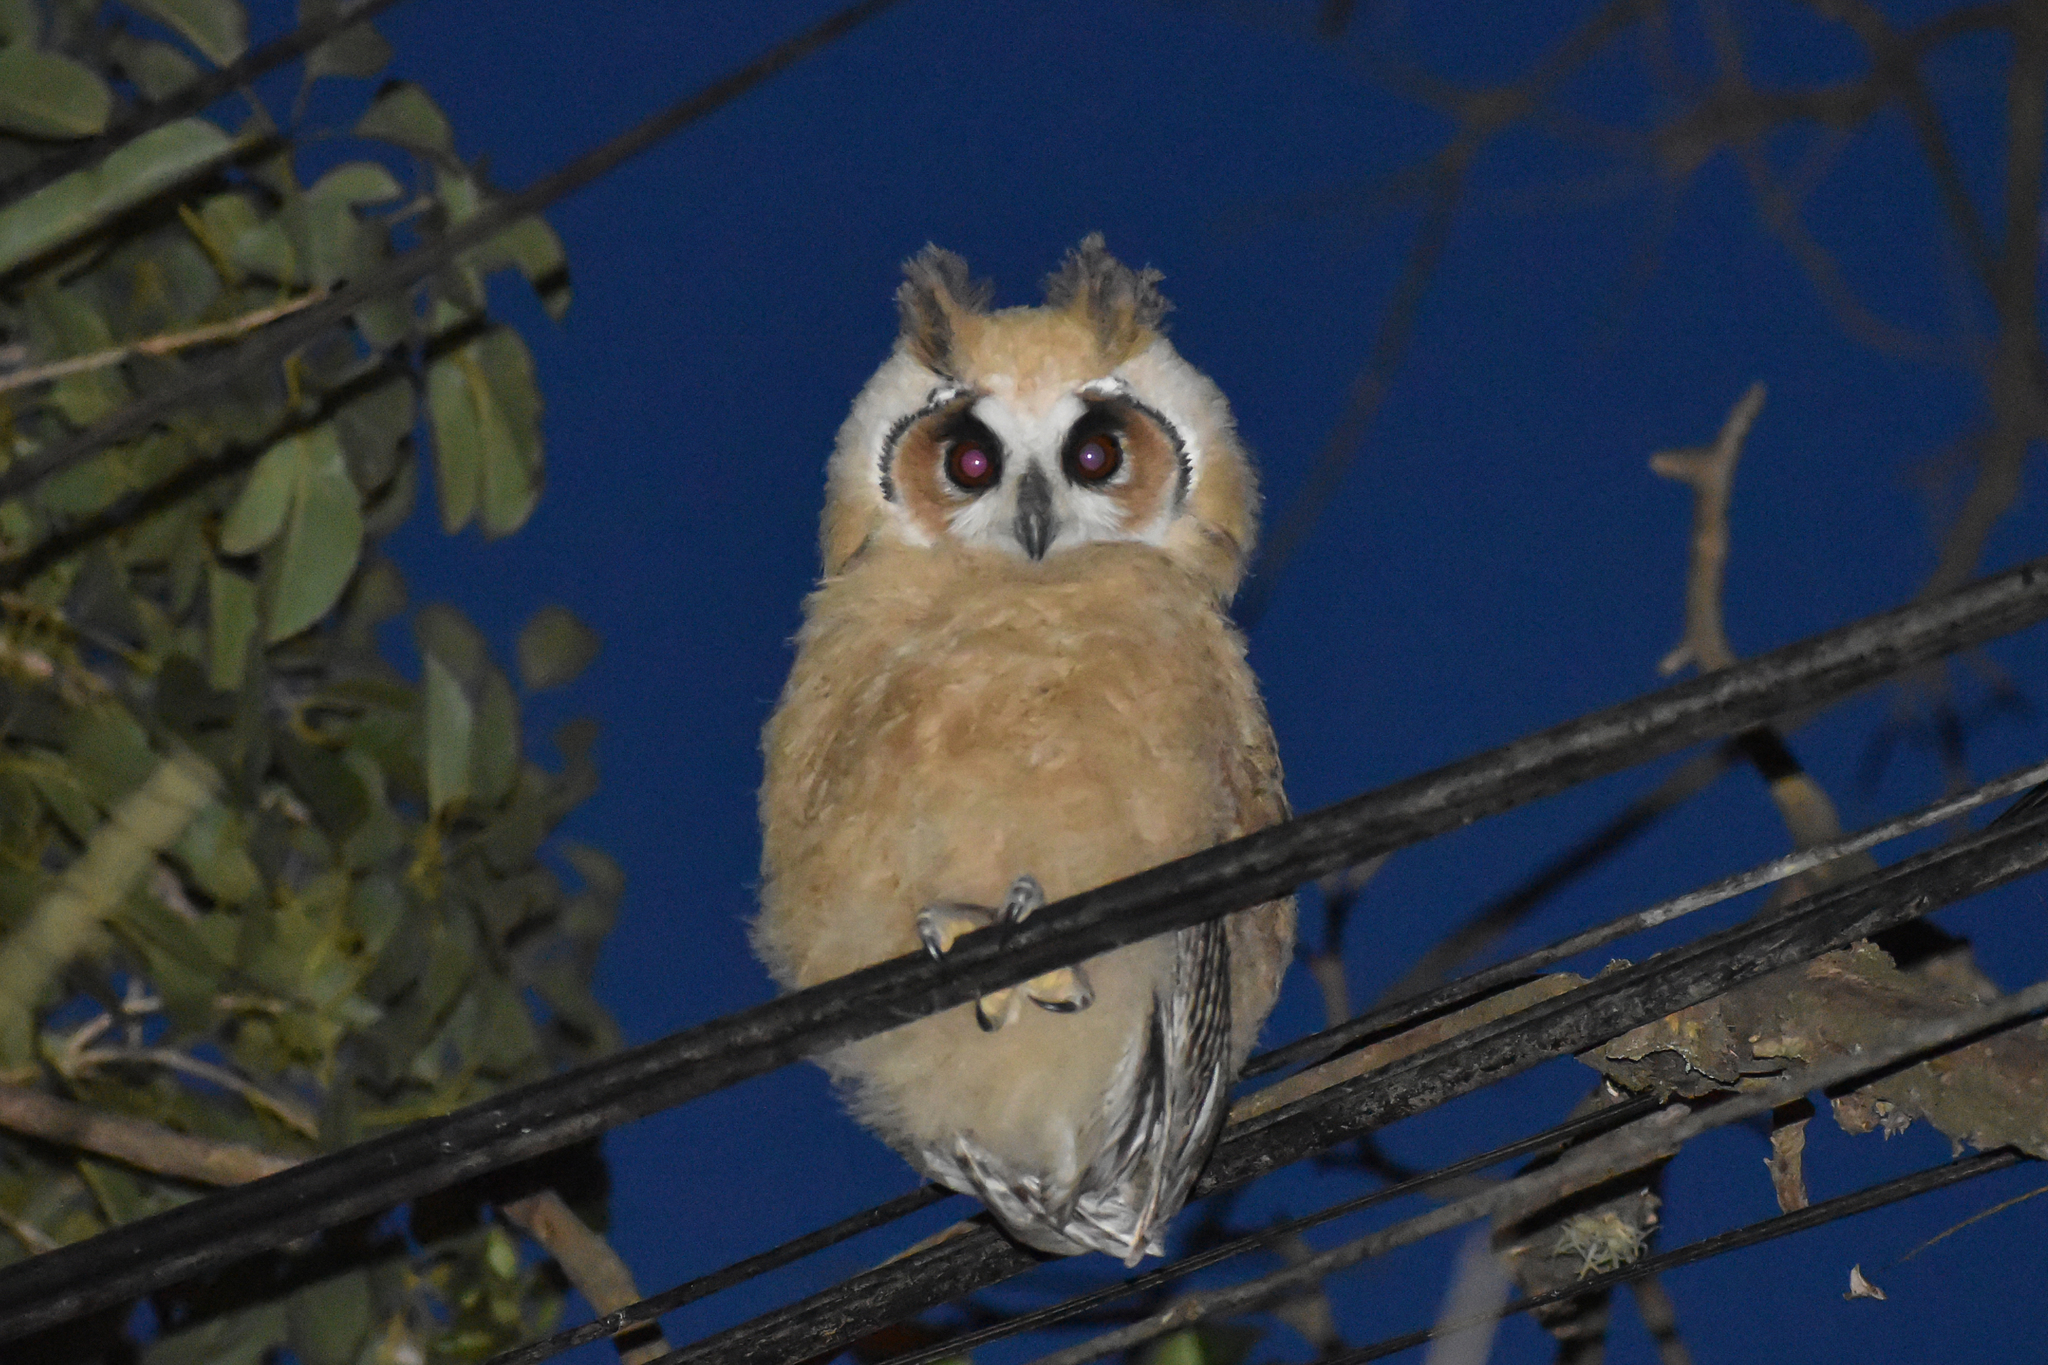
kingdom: Animalia
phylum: Chordata
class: Aves
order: Strigiformes
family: Strigidae
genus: Pseudoscops
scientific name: Pseudoscops clamator
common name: Striped owl
